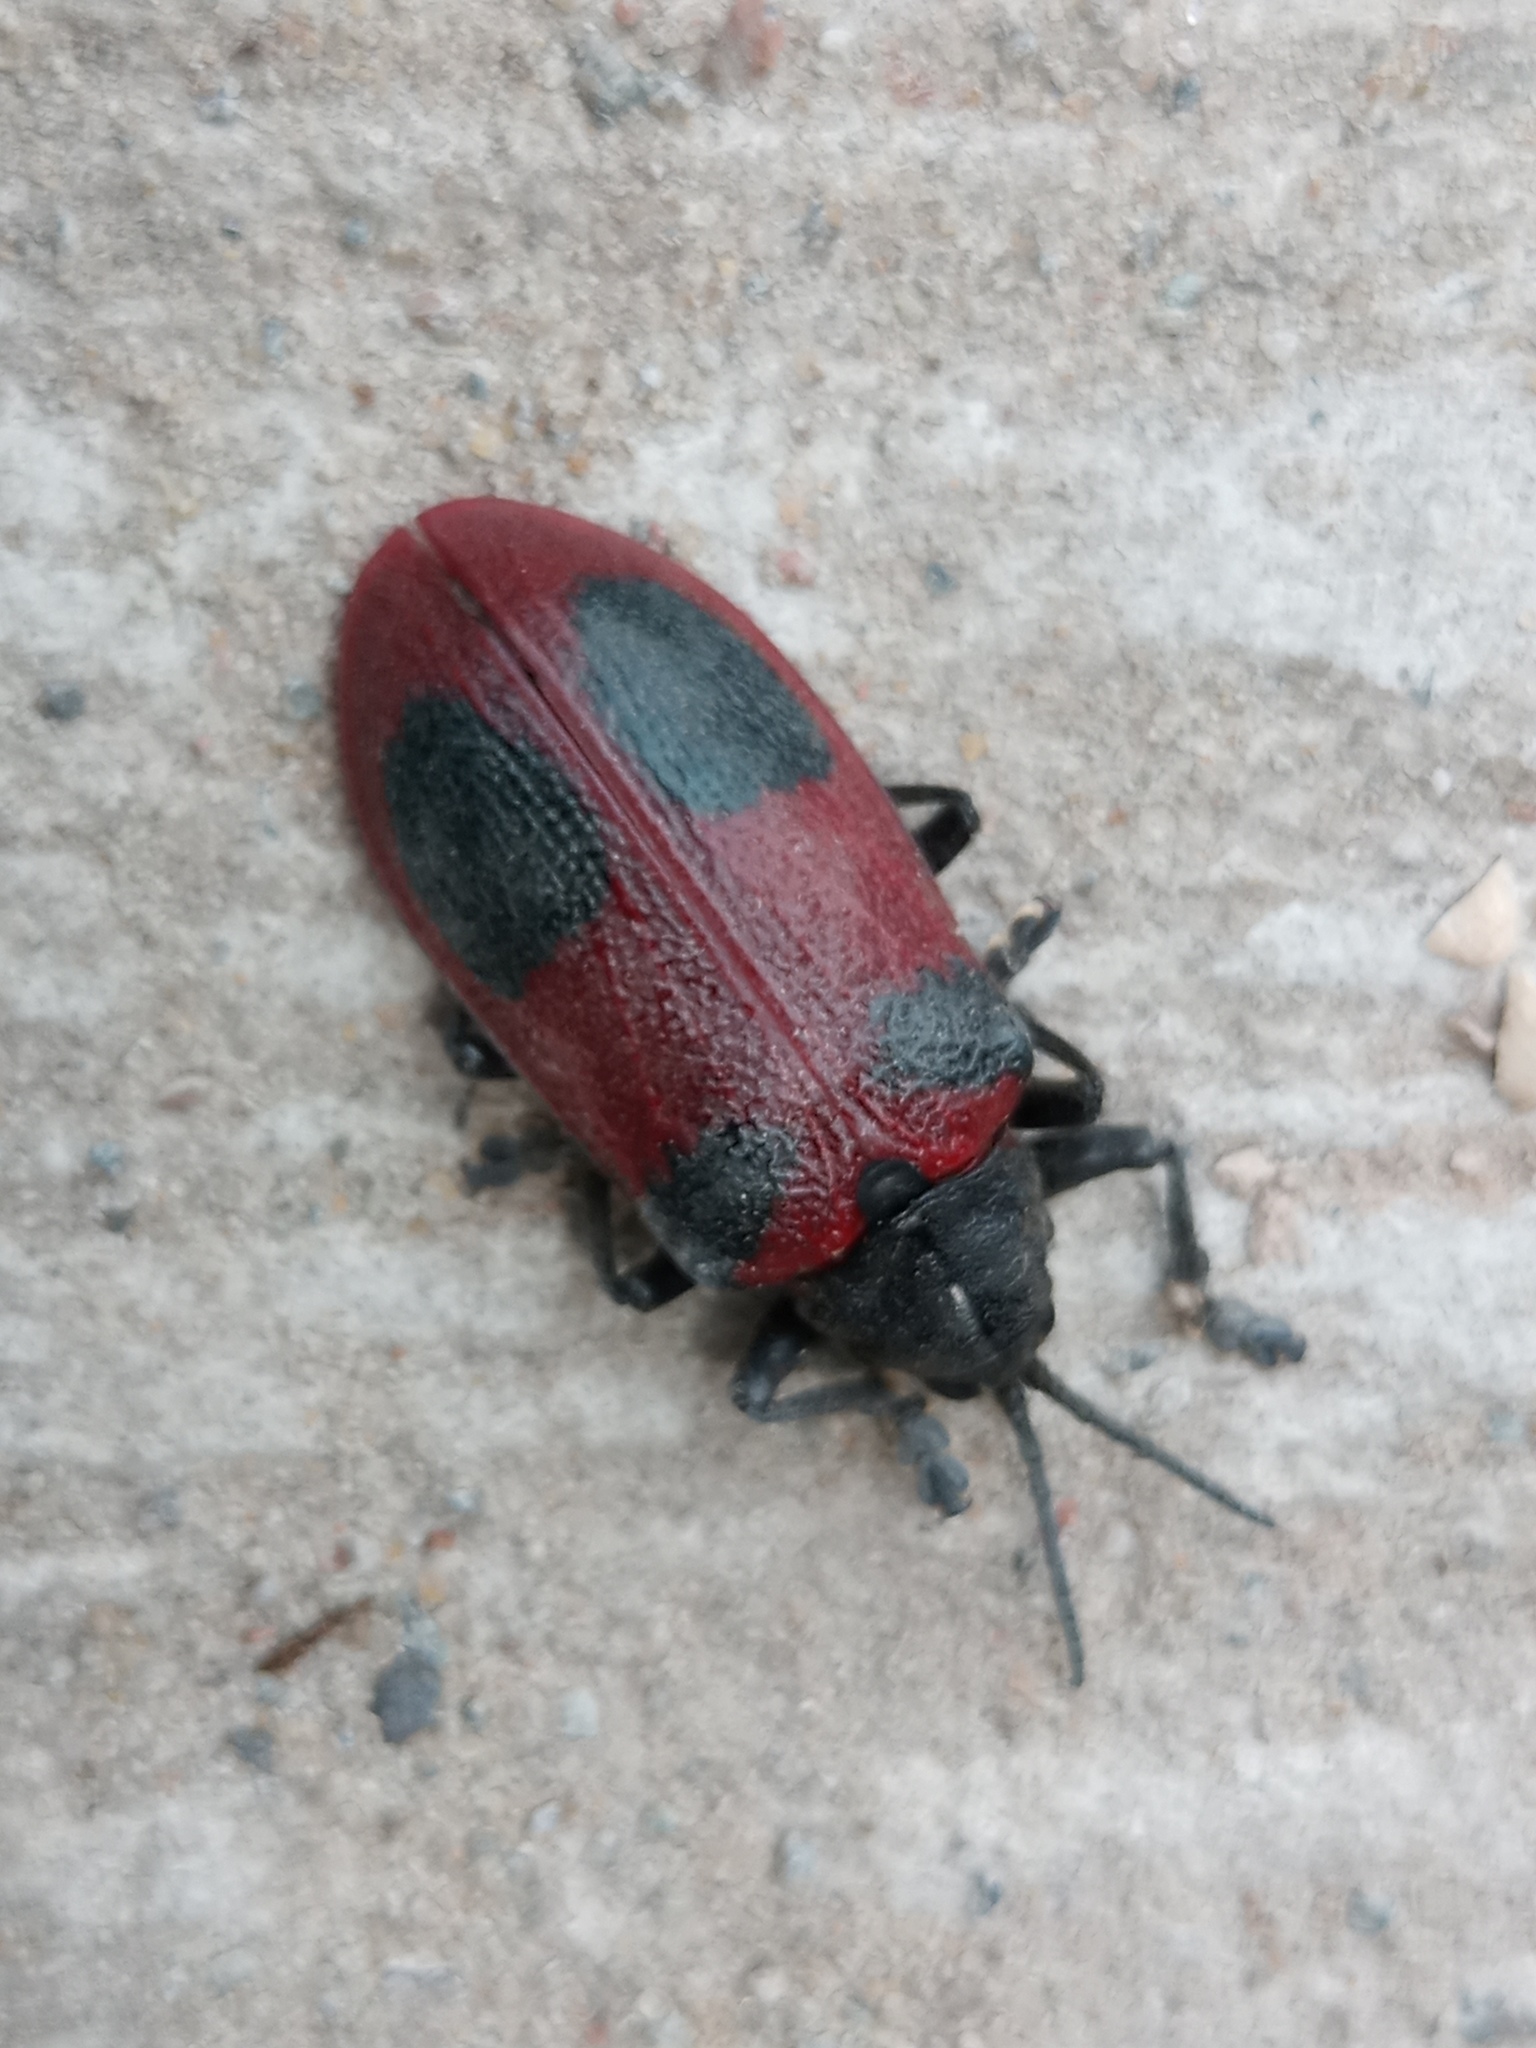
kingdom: Animalia
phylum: Arthropoda
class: Insecta
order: Coleoptera
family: Chrysomelidae
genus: Coraliomela
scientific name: Coraliomela quadrimaculata
